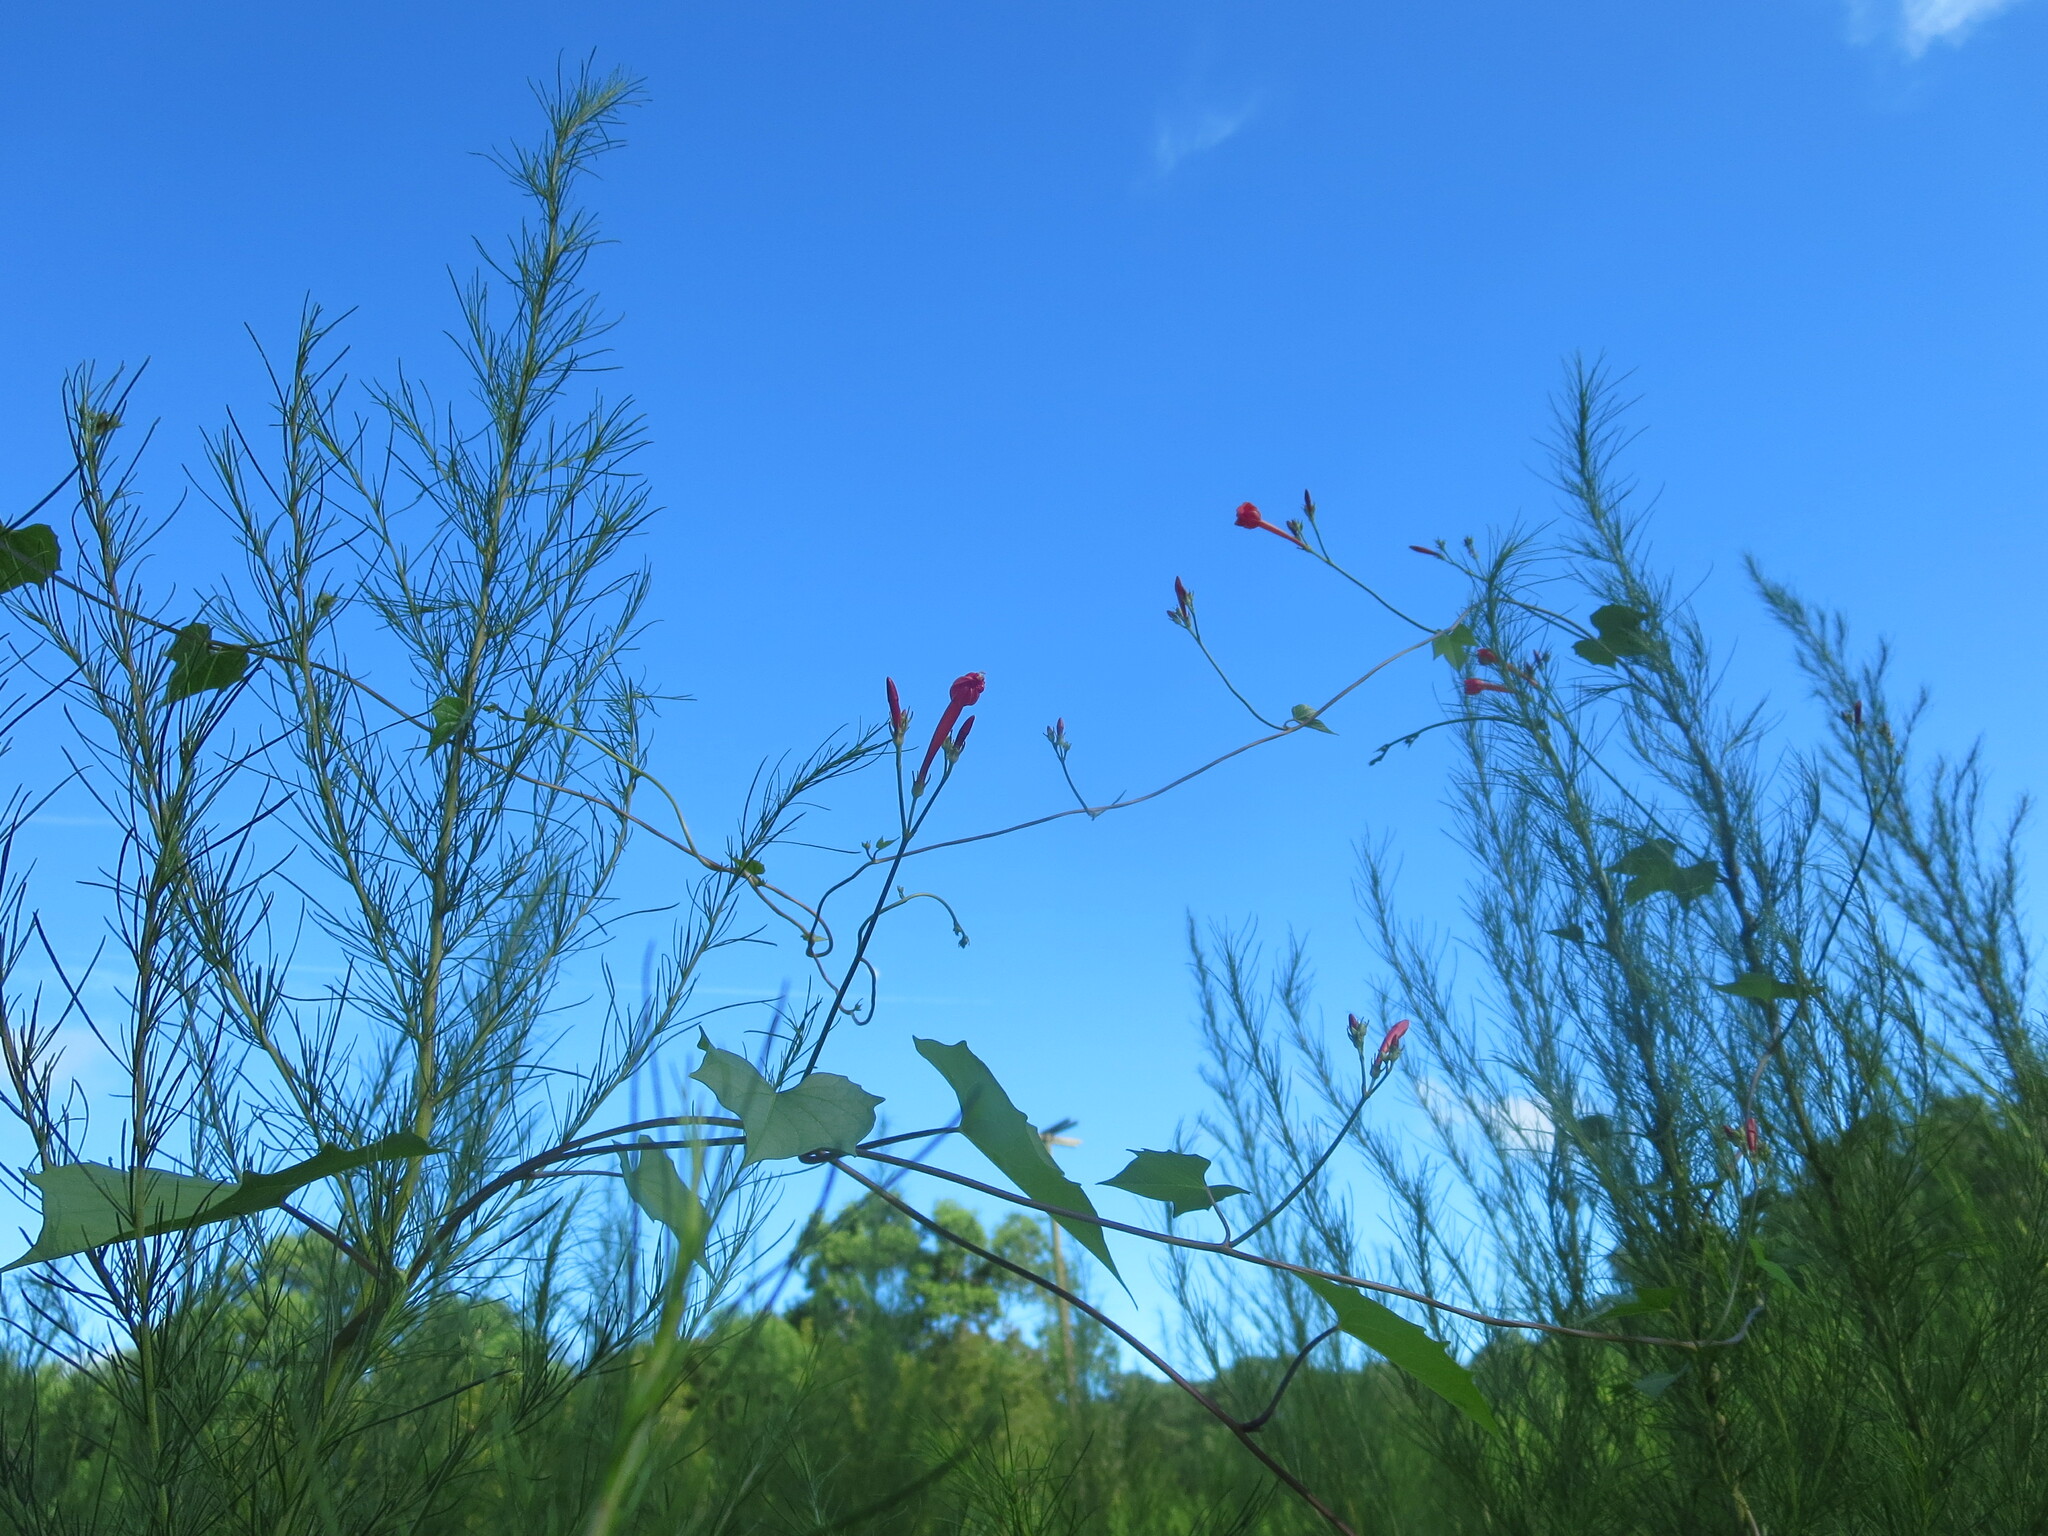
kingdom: Plantae
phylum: Tracheophyta
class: Magnoliopsida
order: Solanales
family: Convolvulaceae
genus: Ipomoea
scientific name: Ipomoea hederifolia
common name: Ivy-leaf morning-glory
